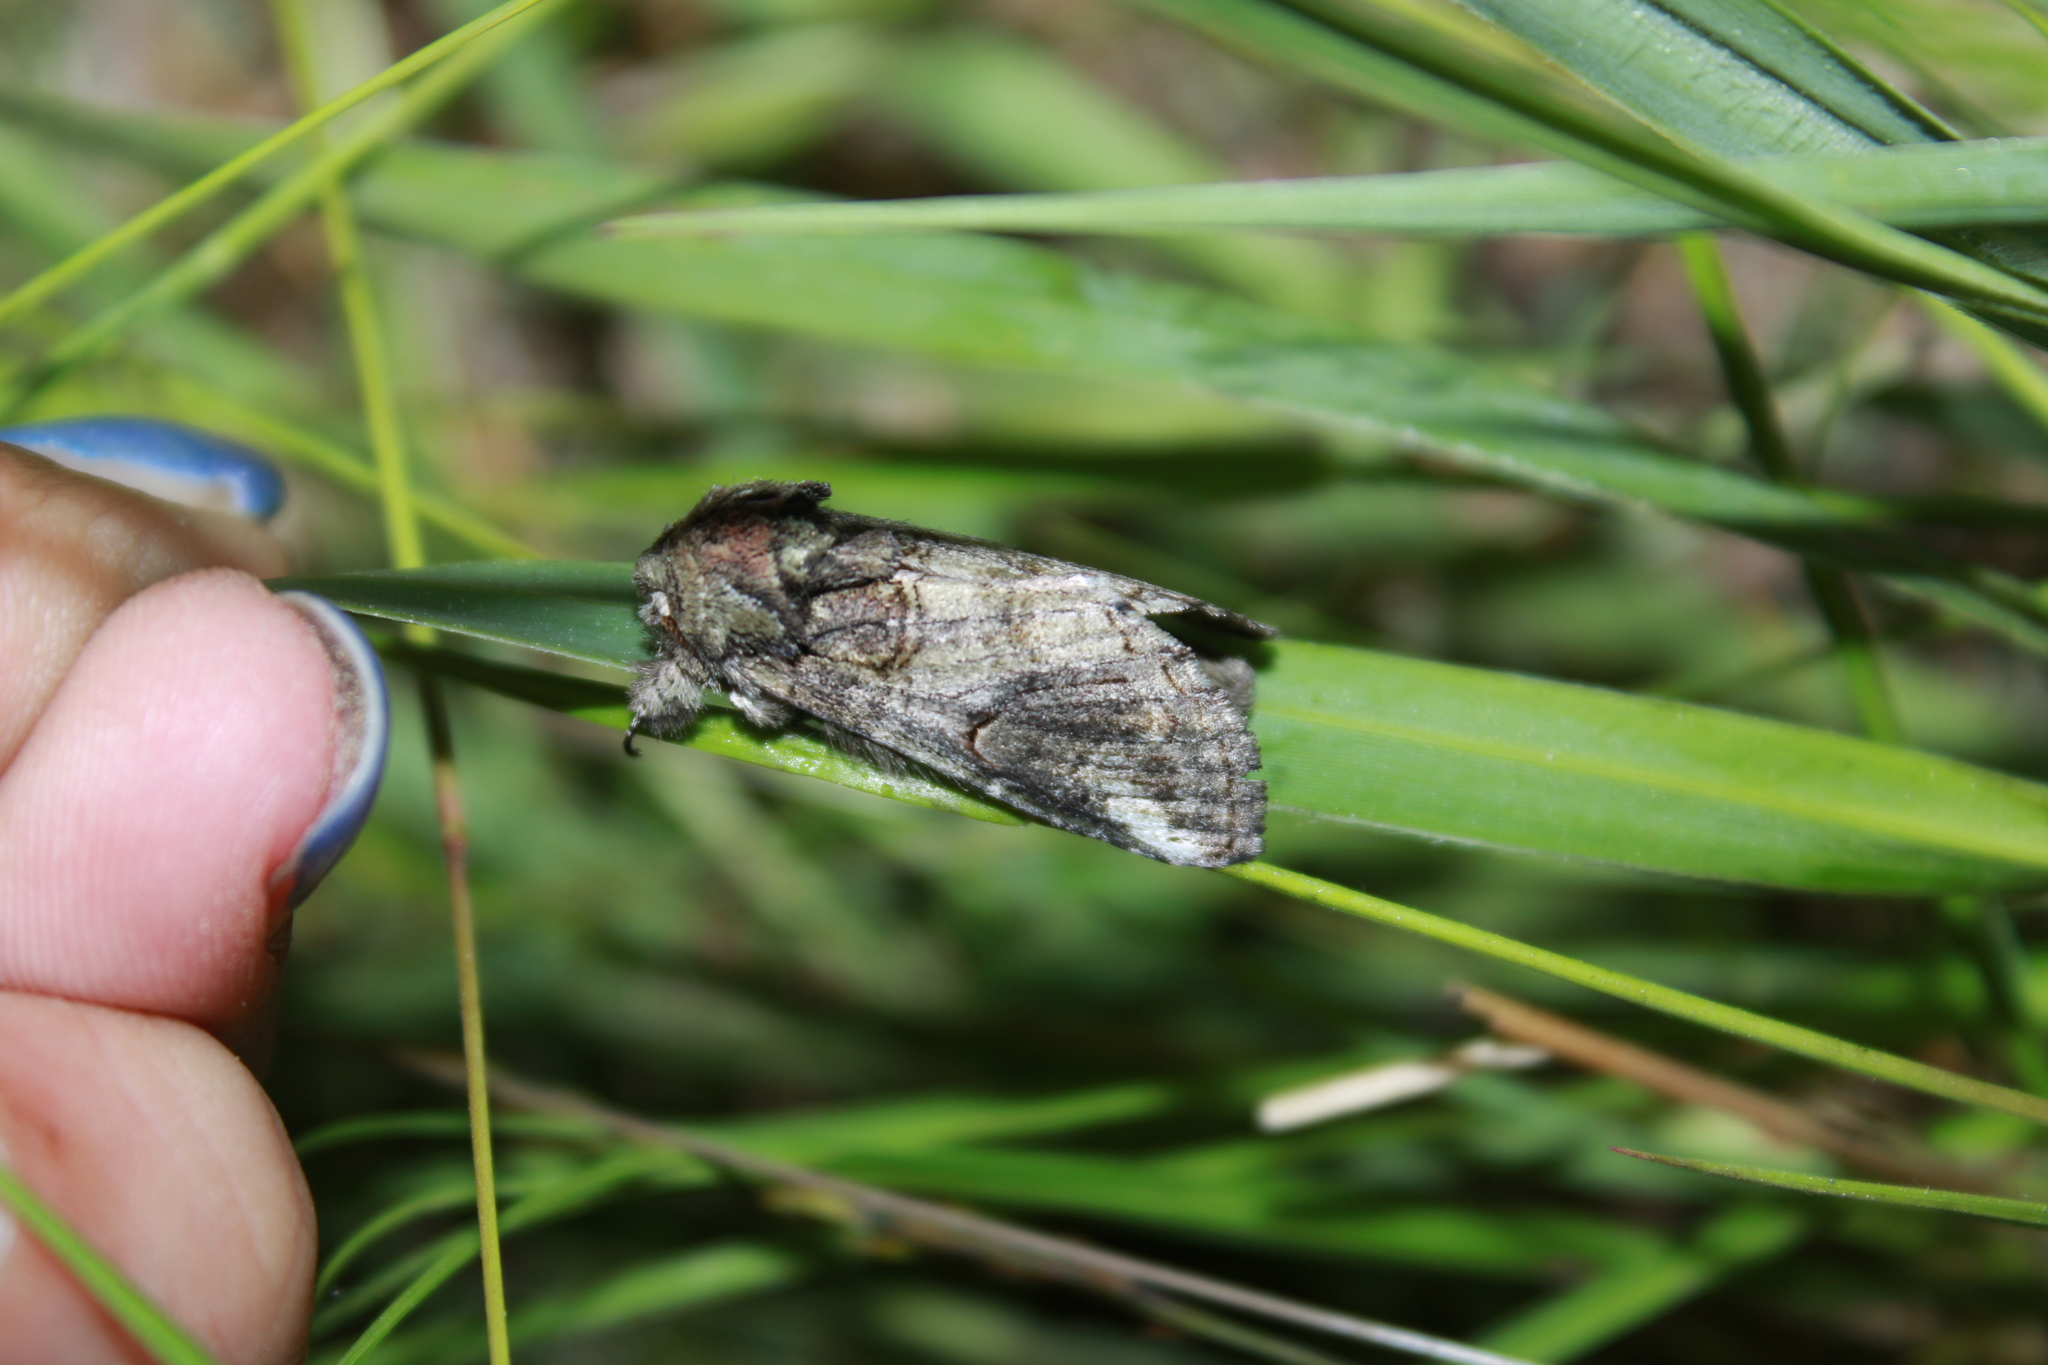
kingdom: Animalia
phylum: Arthropoda
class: Insecta
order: Lepidoptera
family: Notodontidae
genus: Heterocampa
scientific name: Heterocampa obliqua
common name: Oblique heterocampa
